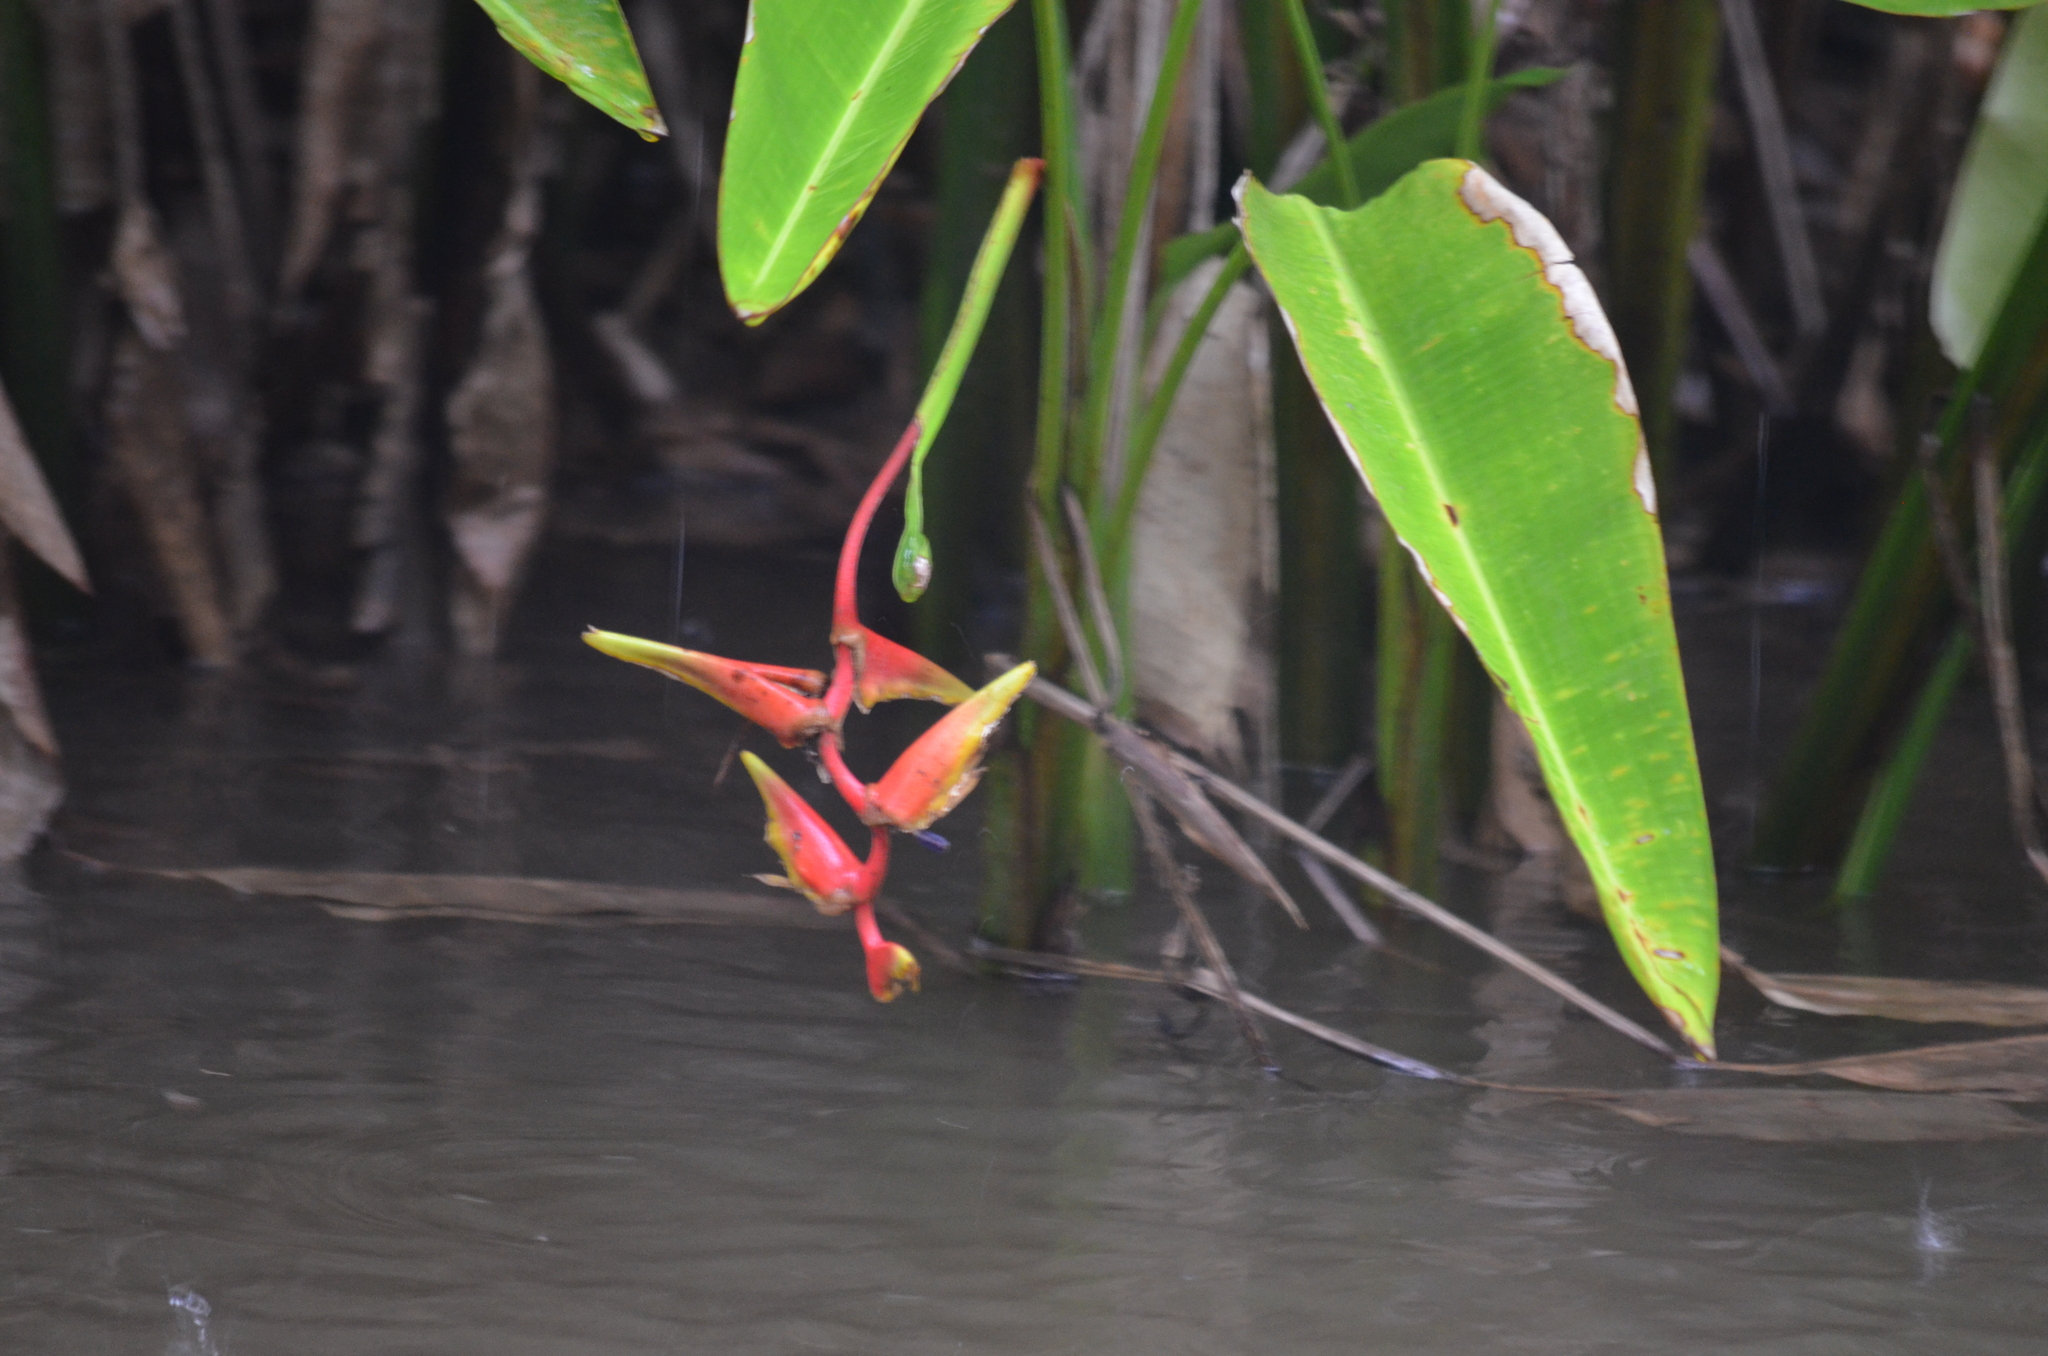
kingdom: Plantae
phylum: Tracheophyta
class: Liliopsida
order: Zingiberales
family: Heliconiaceae
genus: Heliconia
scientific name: Heliconia marginata
